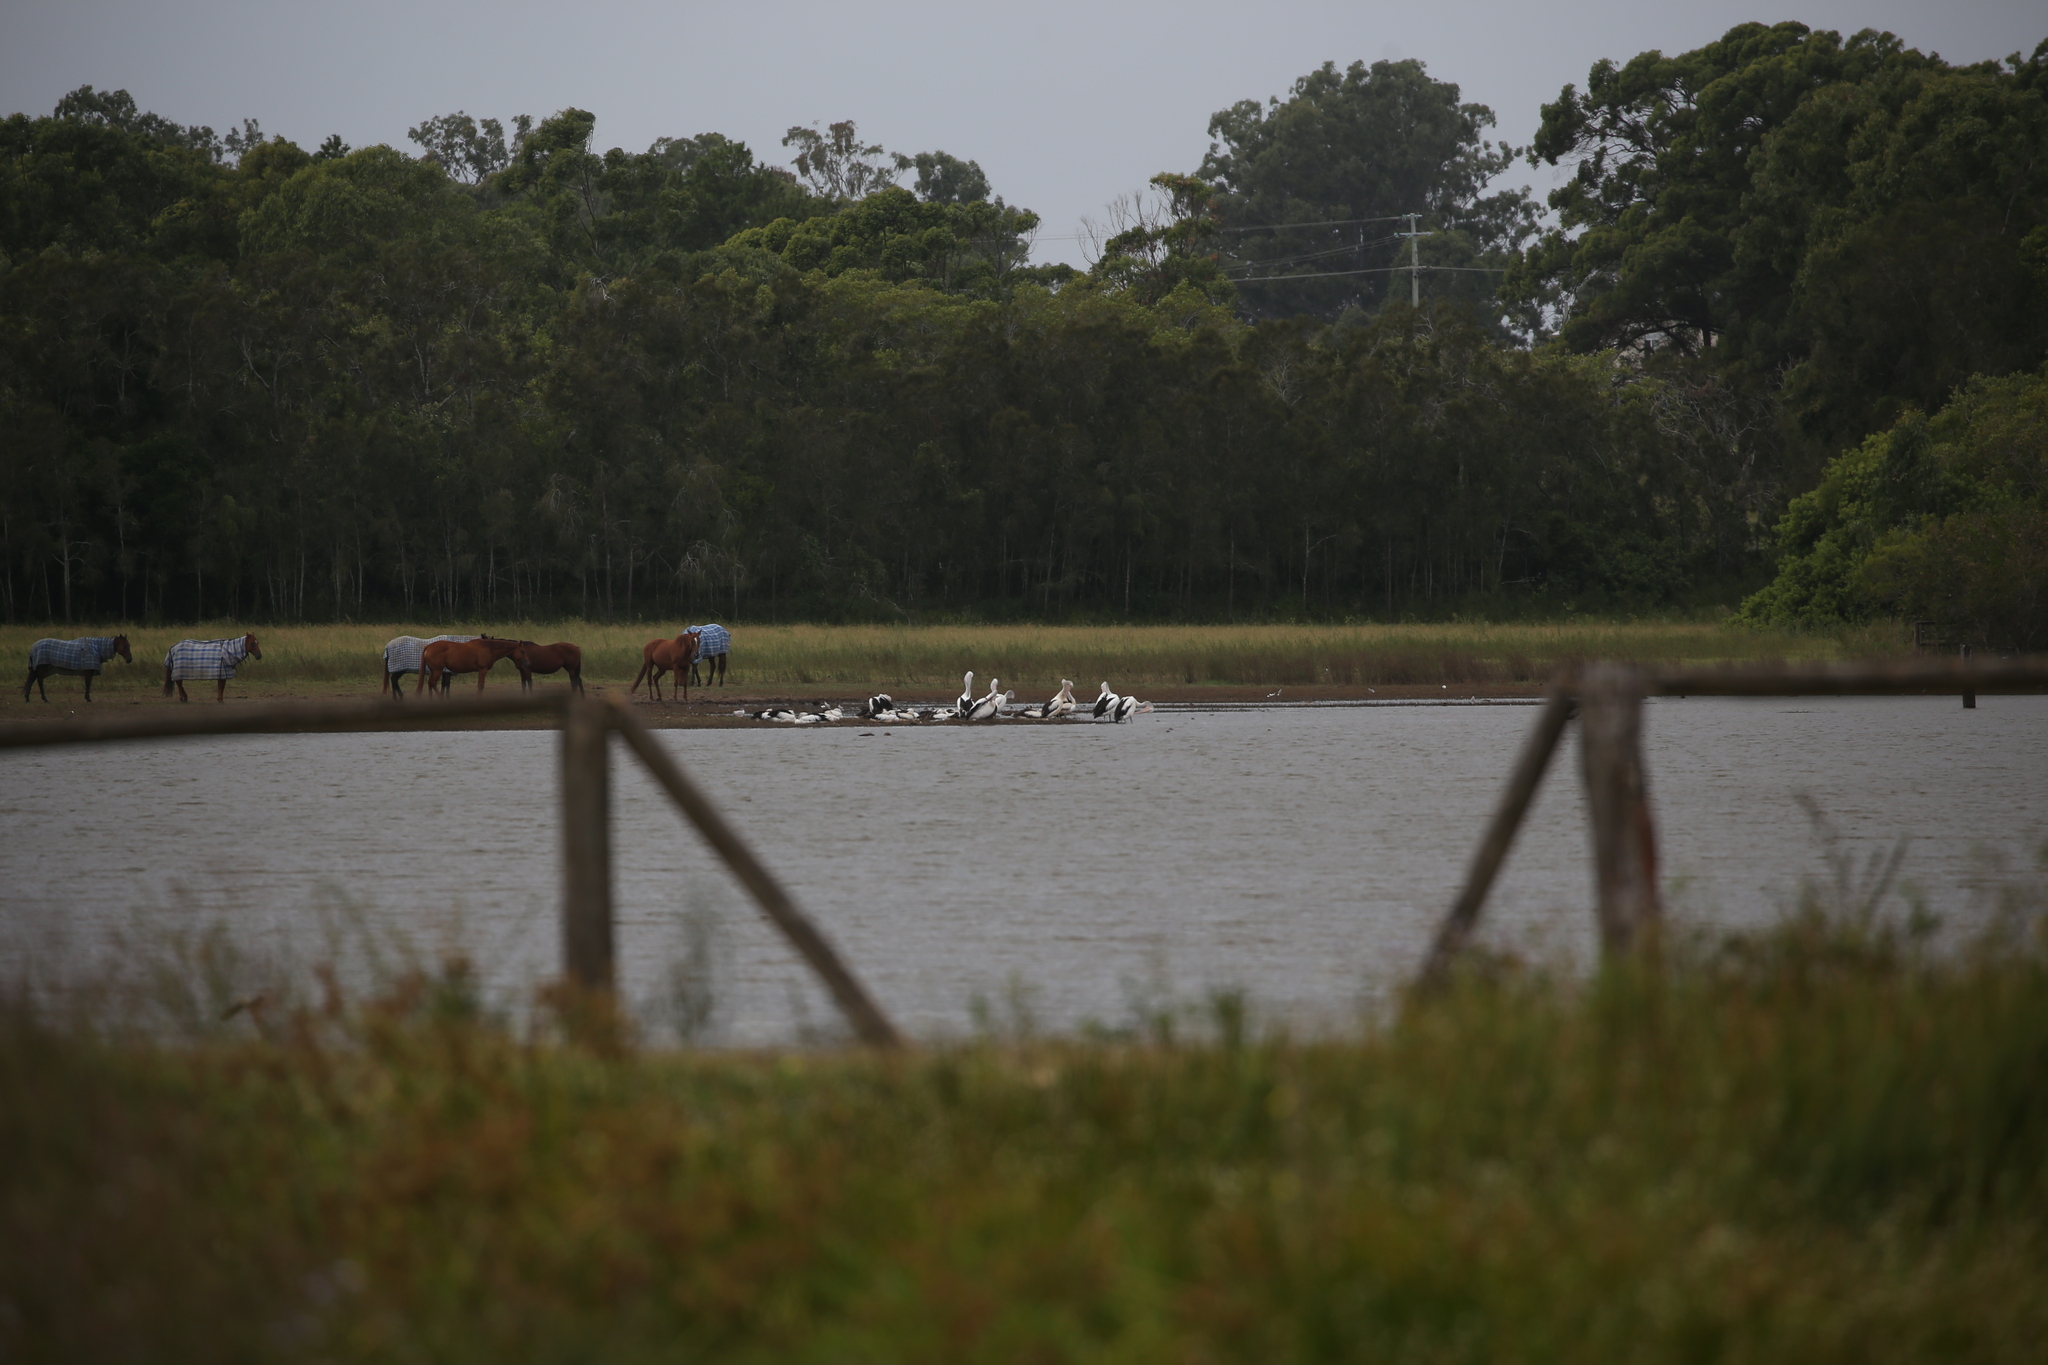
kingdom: Animalia
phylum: Chordata
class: Aves
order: Pelecaniformes
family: Pelecanidae
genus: Pelecanus
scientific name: Pelecanus conspicillatus
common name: Australian pelican
